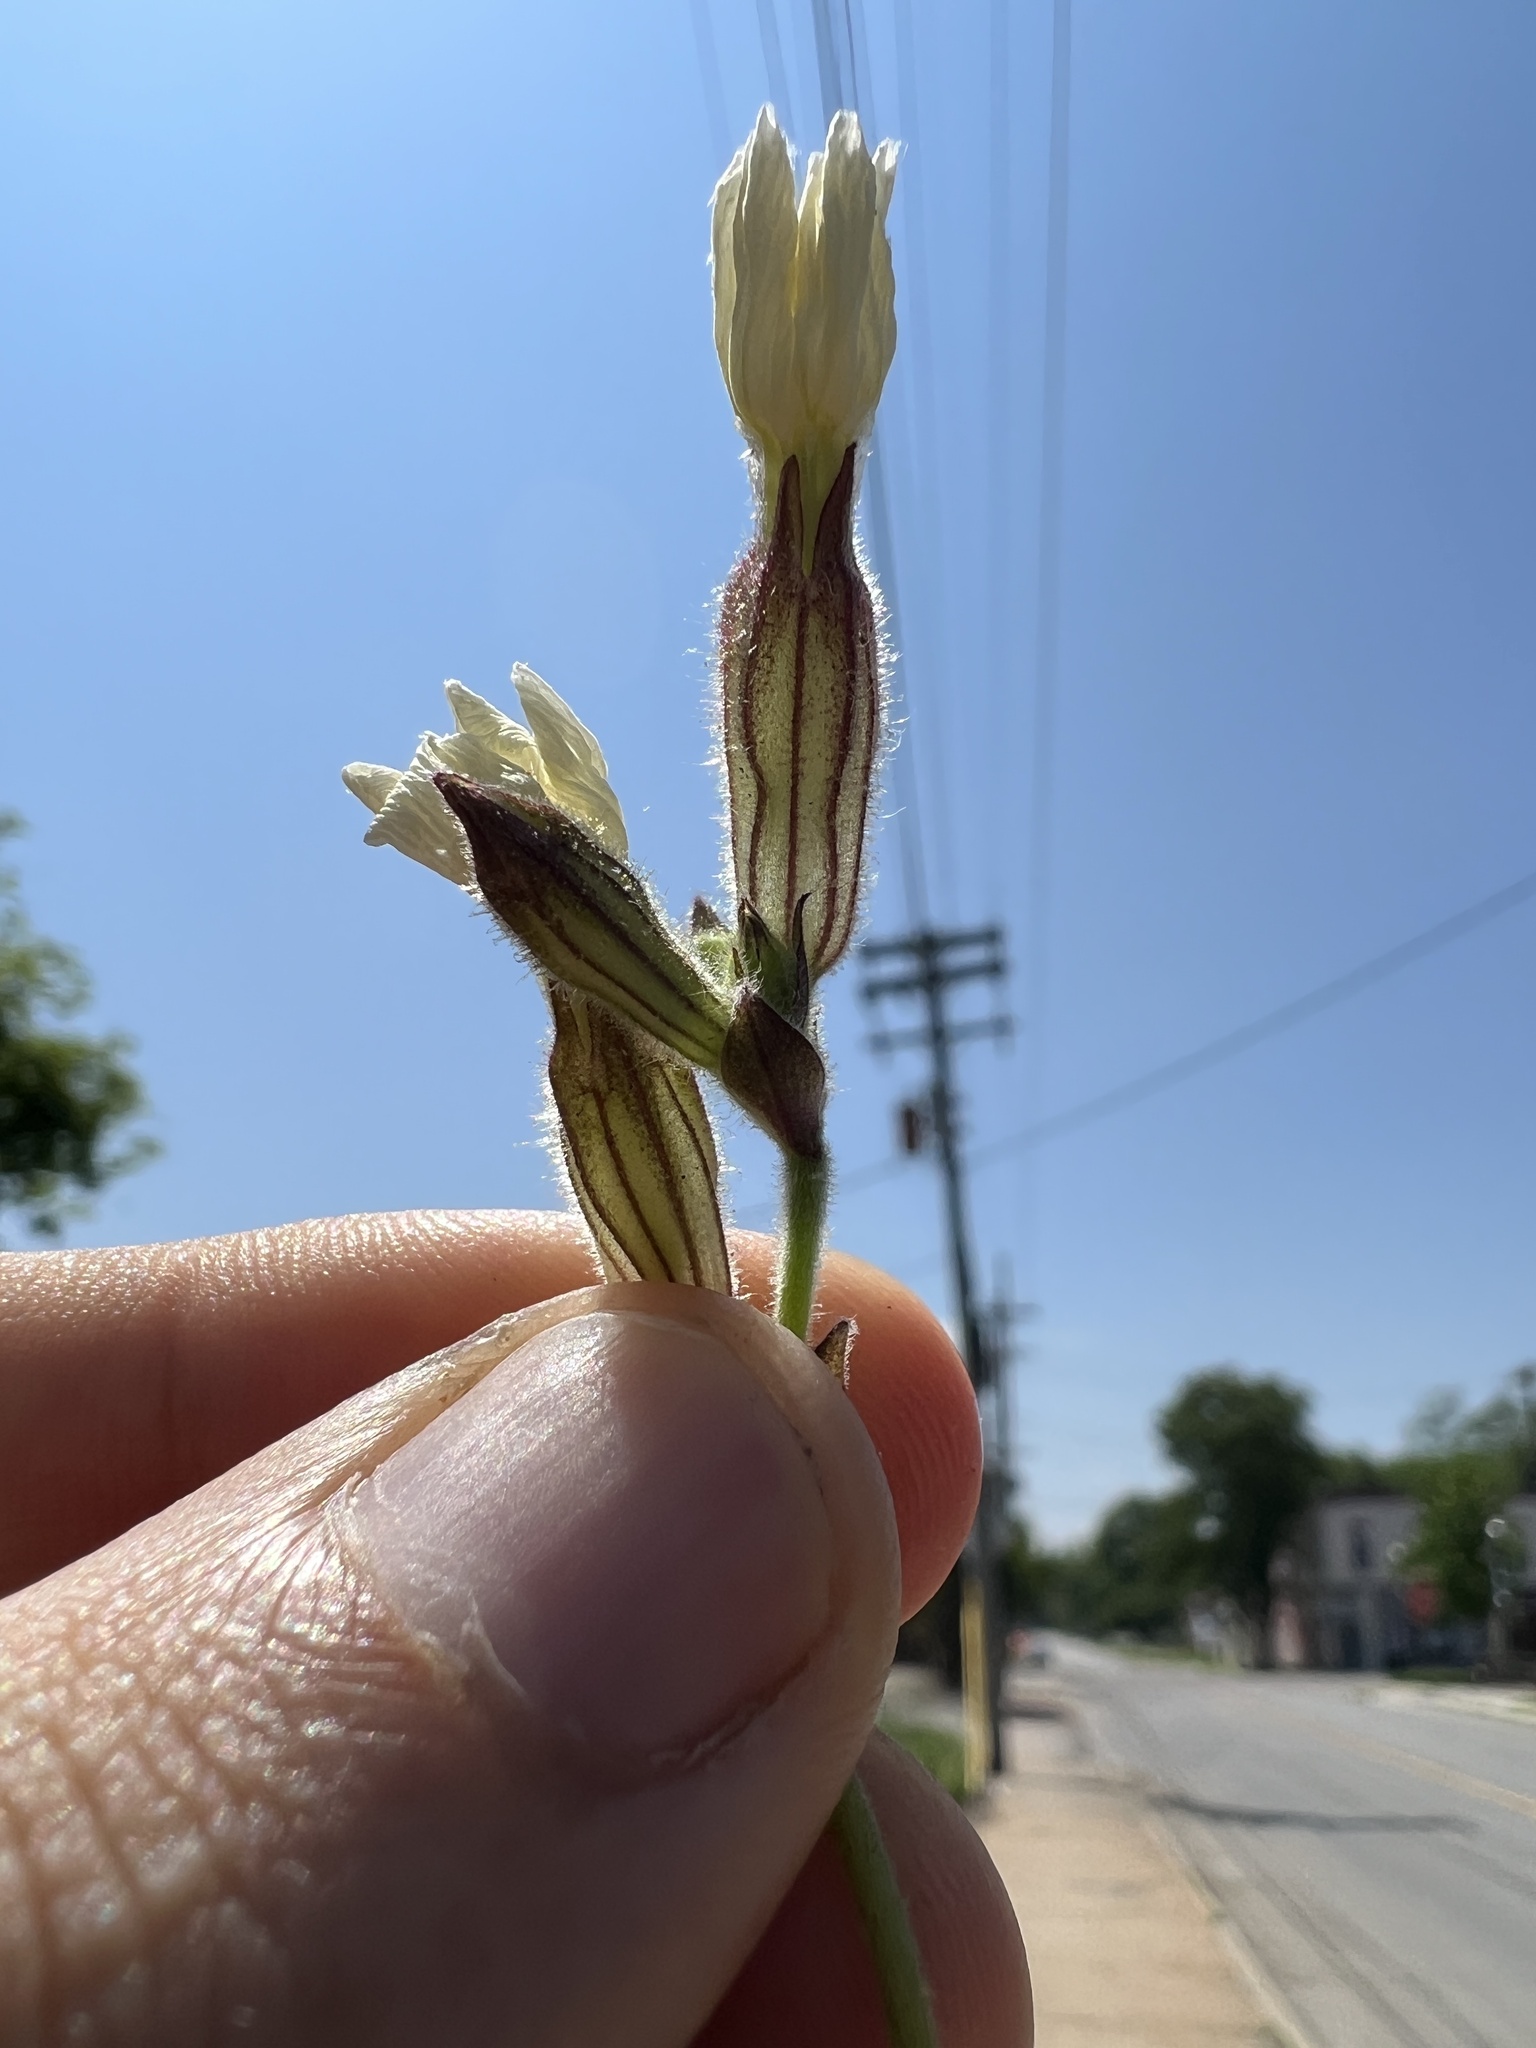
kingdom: Plantae
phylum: Tracheophyta
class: Magnoliopsida
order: Caryophyllales
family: Caryophyllaceae
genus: Silene
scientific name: Silene latifolia
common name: White campion
